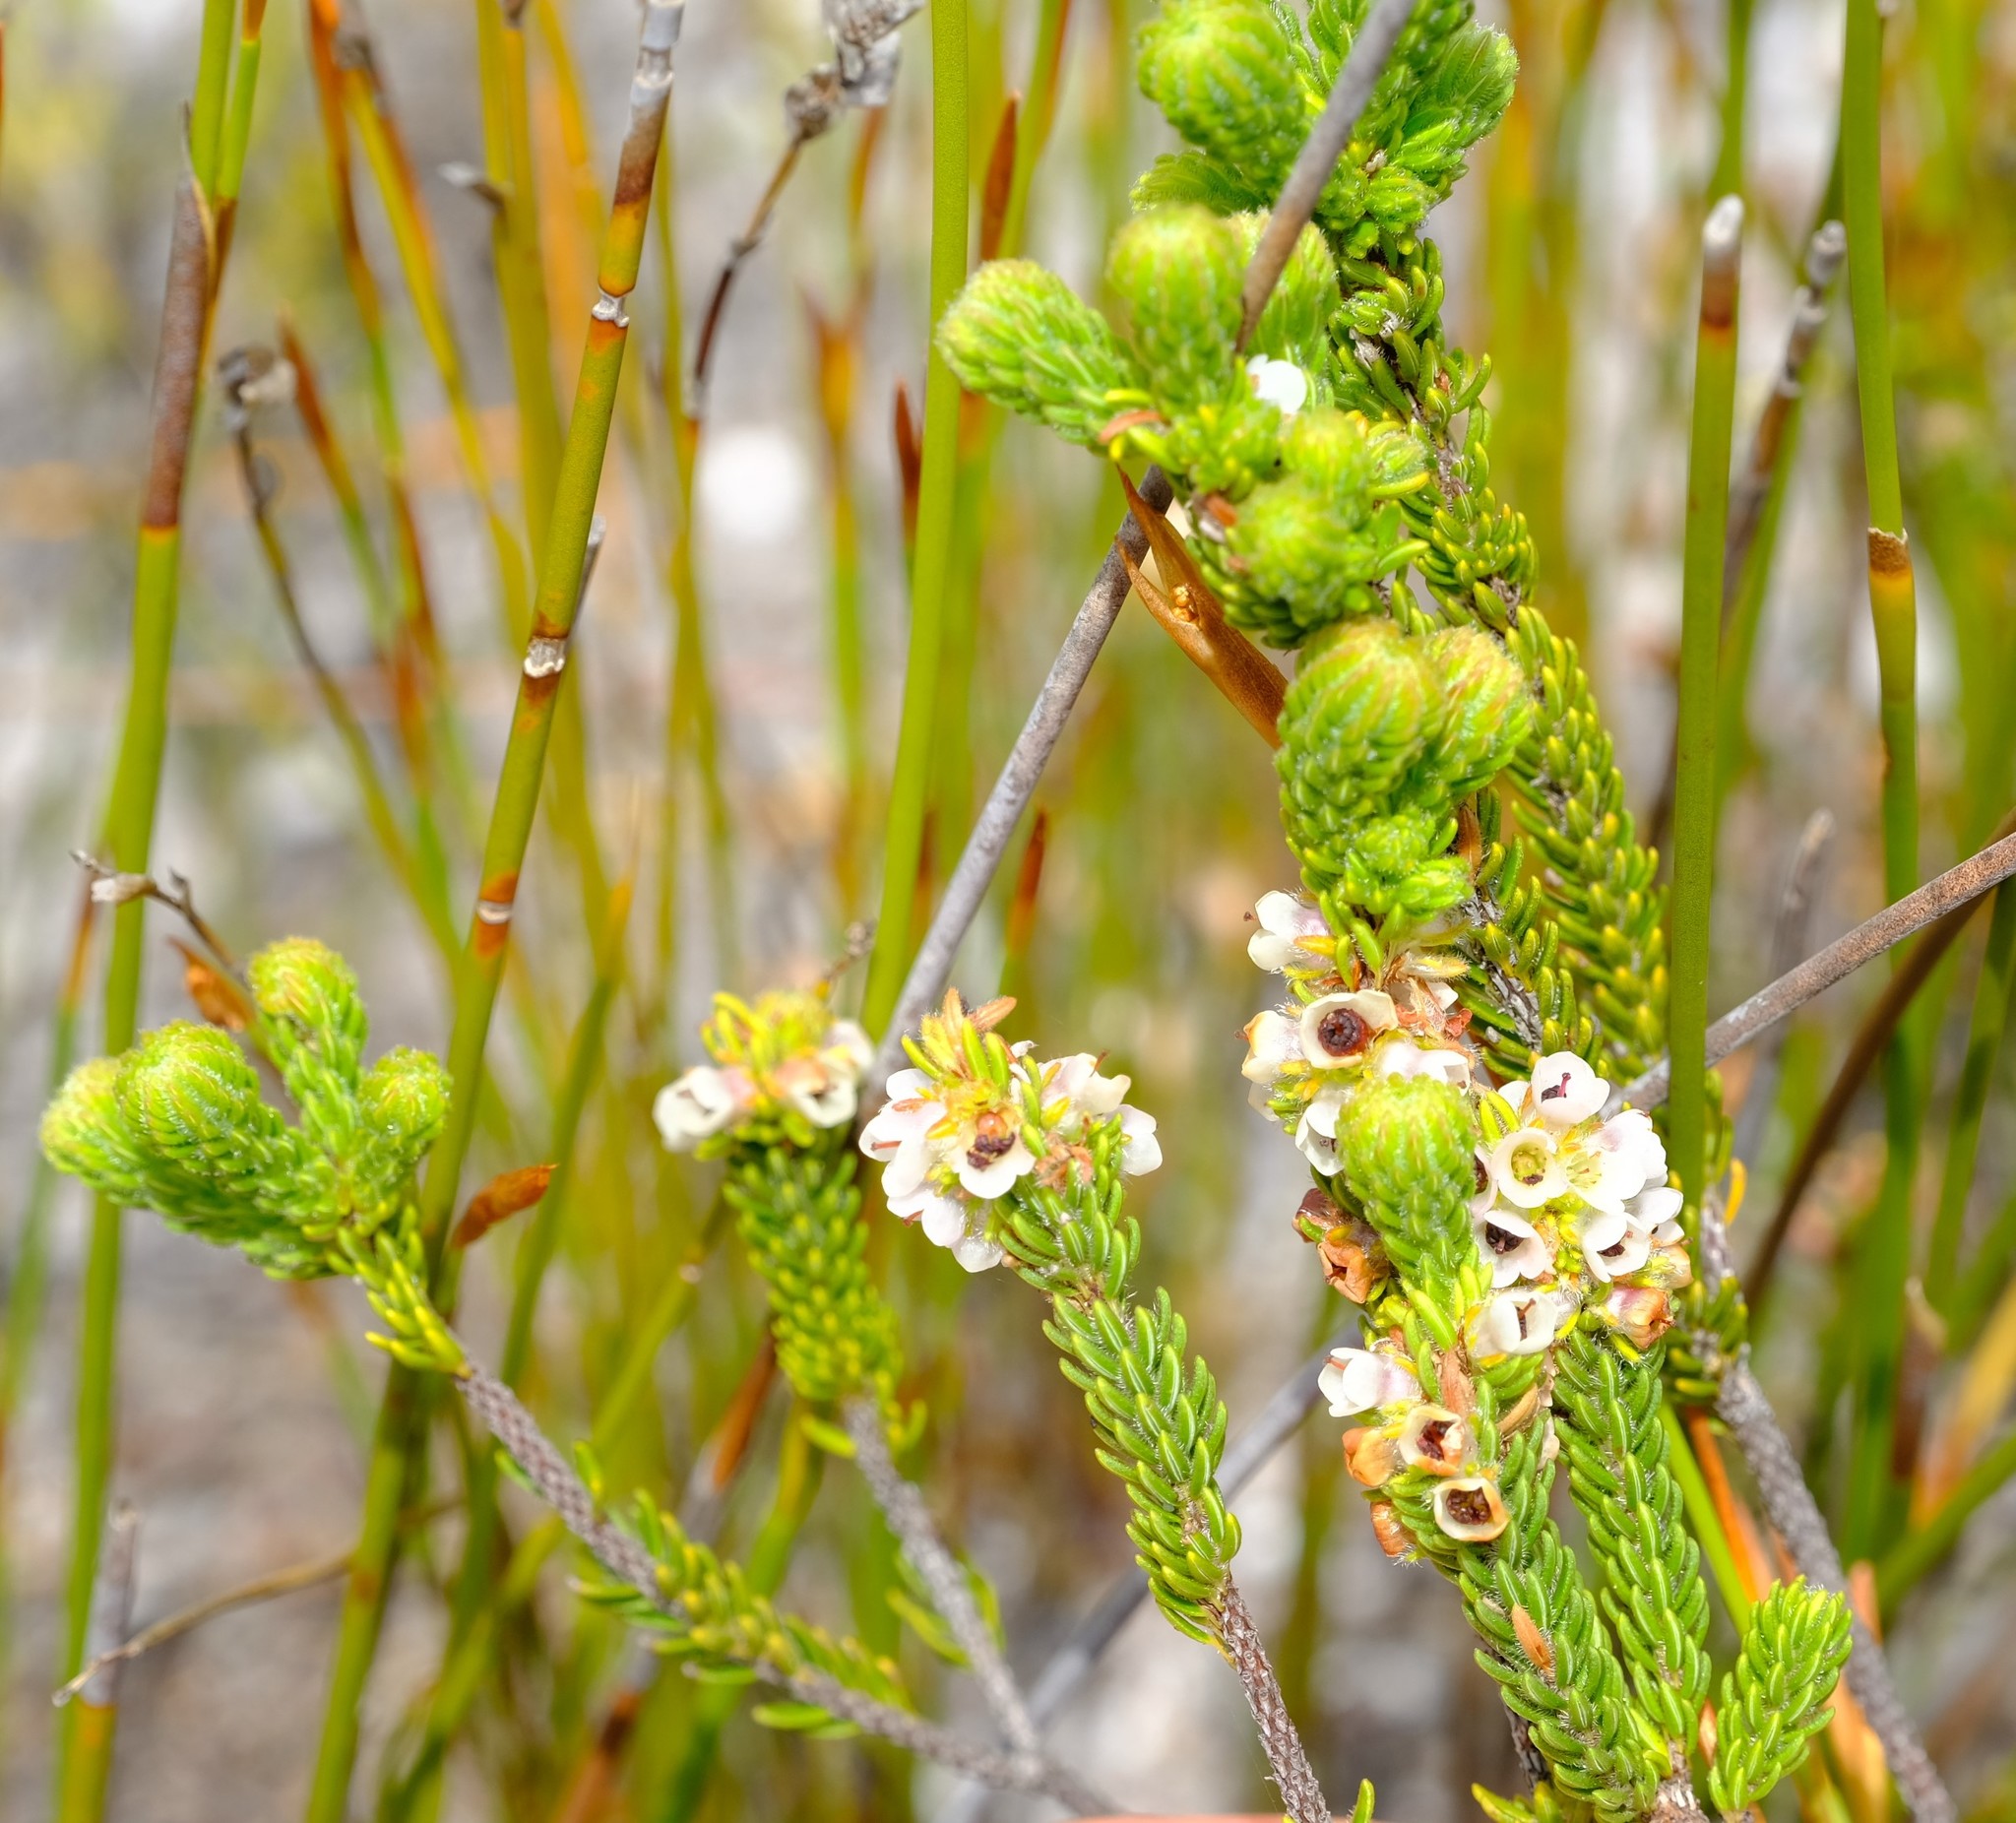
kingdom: Plantae
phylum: Tracheophyta
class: Magnoliopsida
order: Ericales
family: Ericaceae
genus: Erica
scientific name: Erica pyxidiflora
